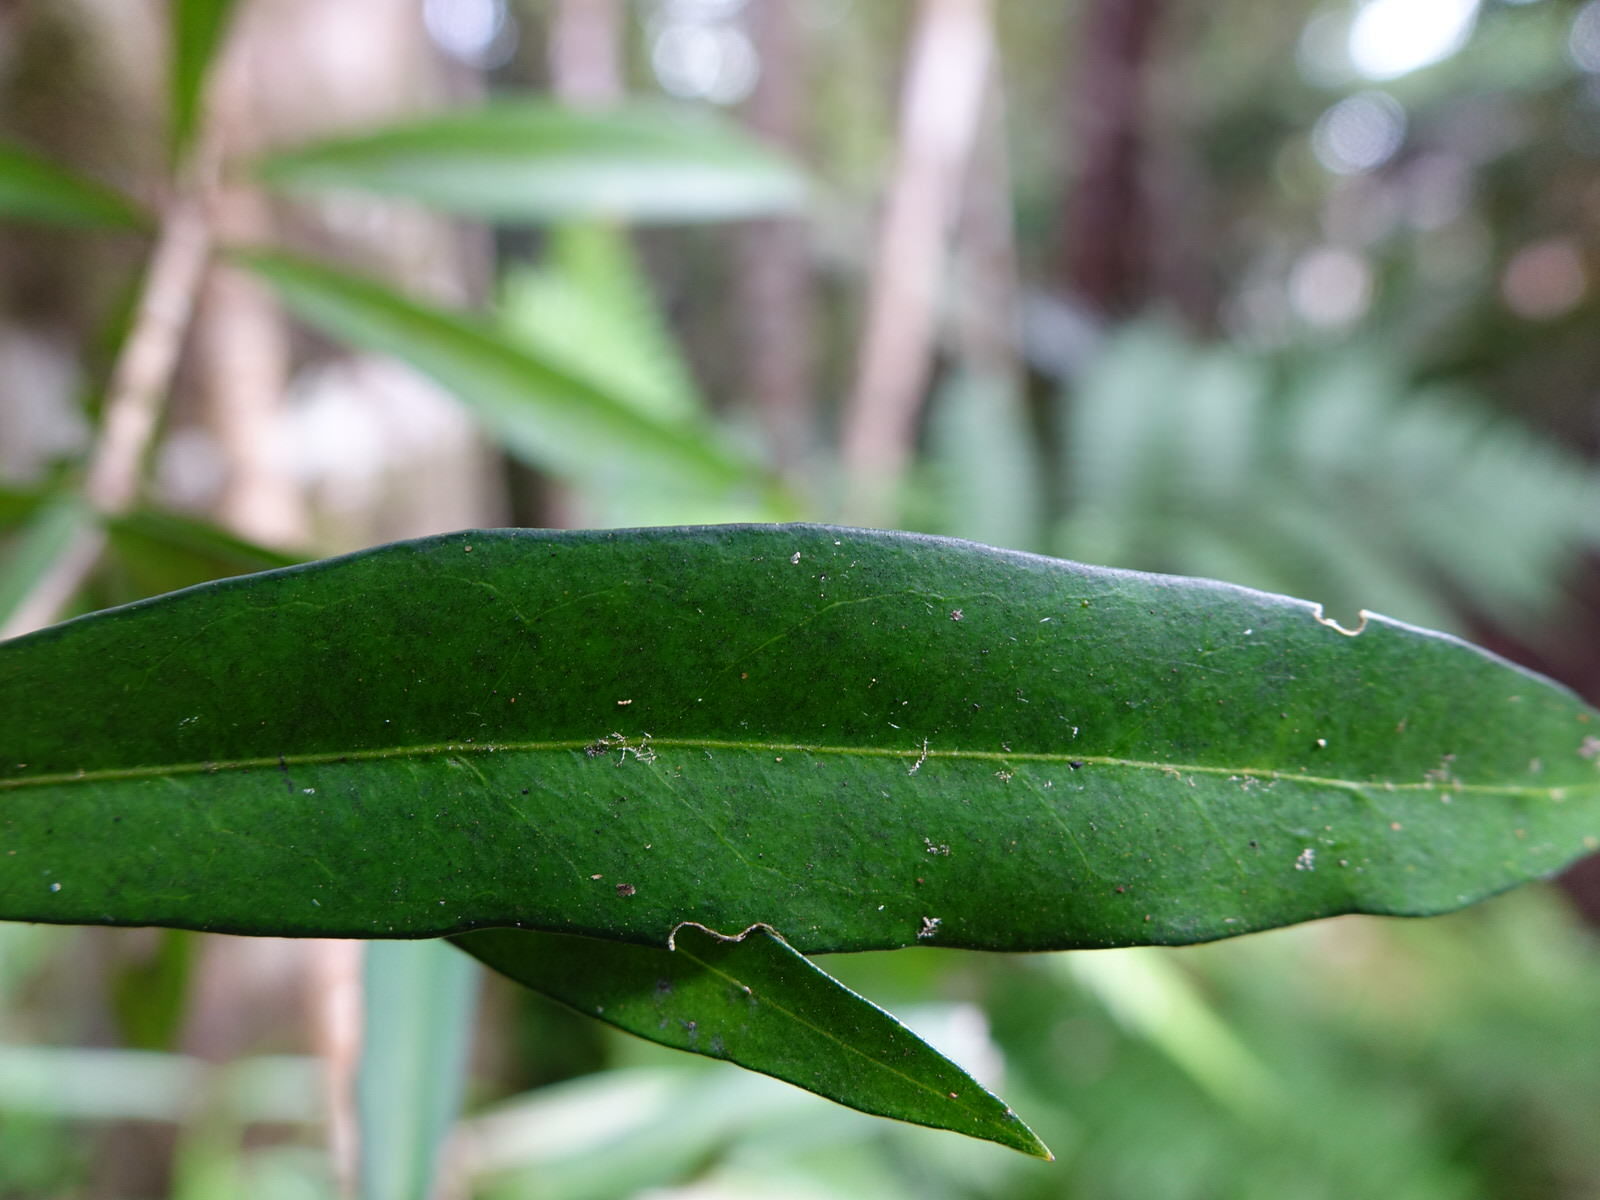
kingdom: Plantae
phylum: Tracheophyta
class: Magnoliopsida
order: Lamiales
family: Oleaceae
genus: Nestegis
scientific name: Nestegis lanceolata
